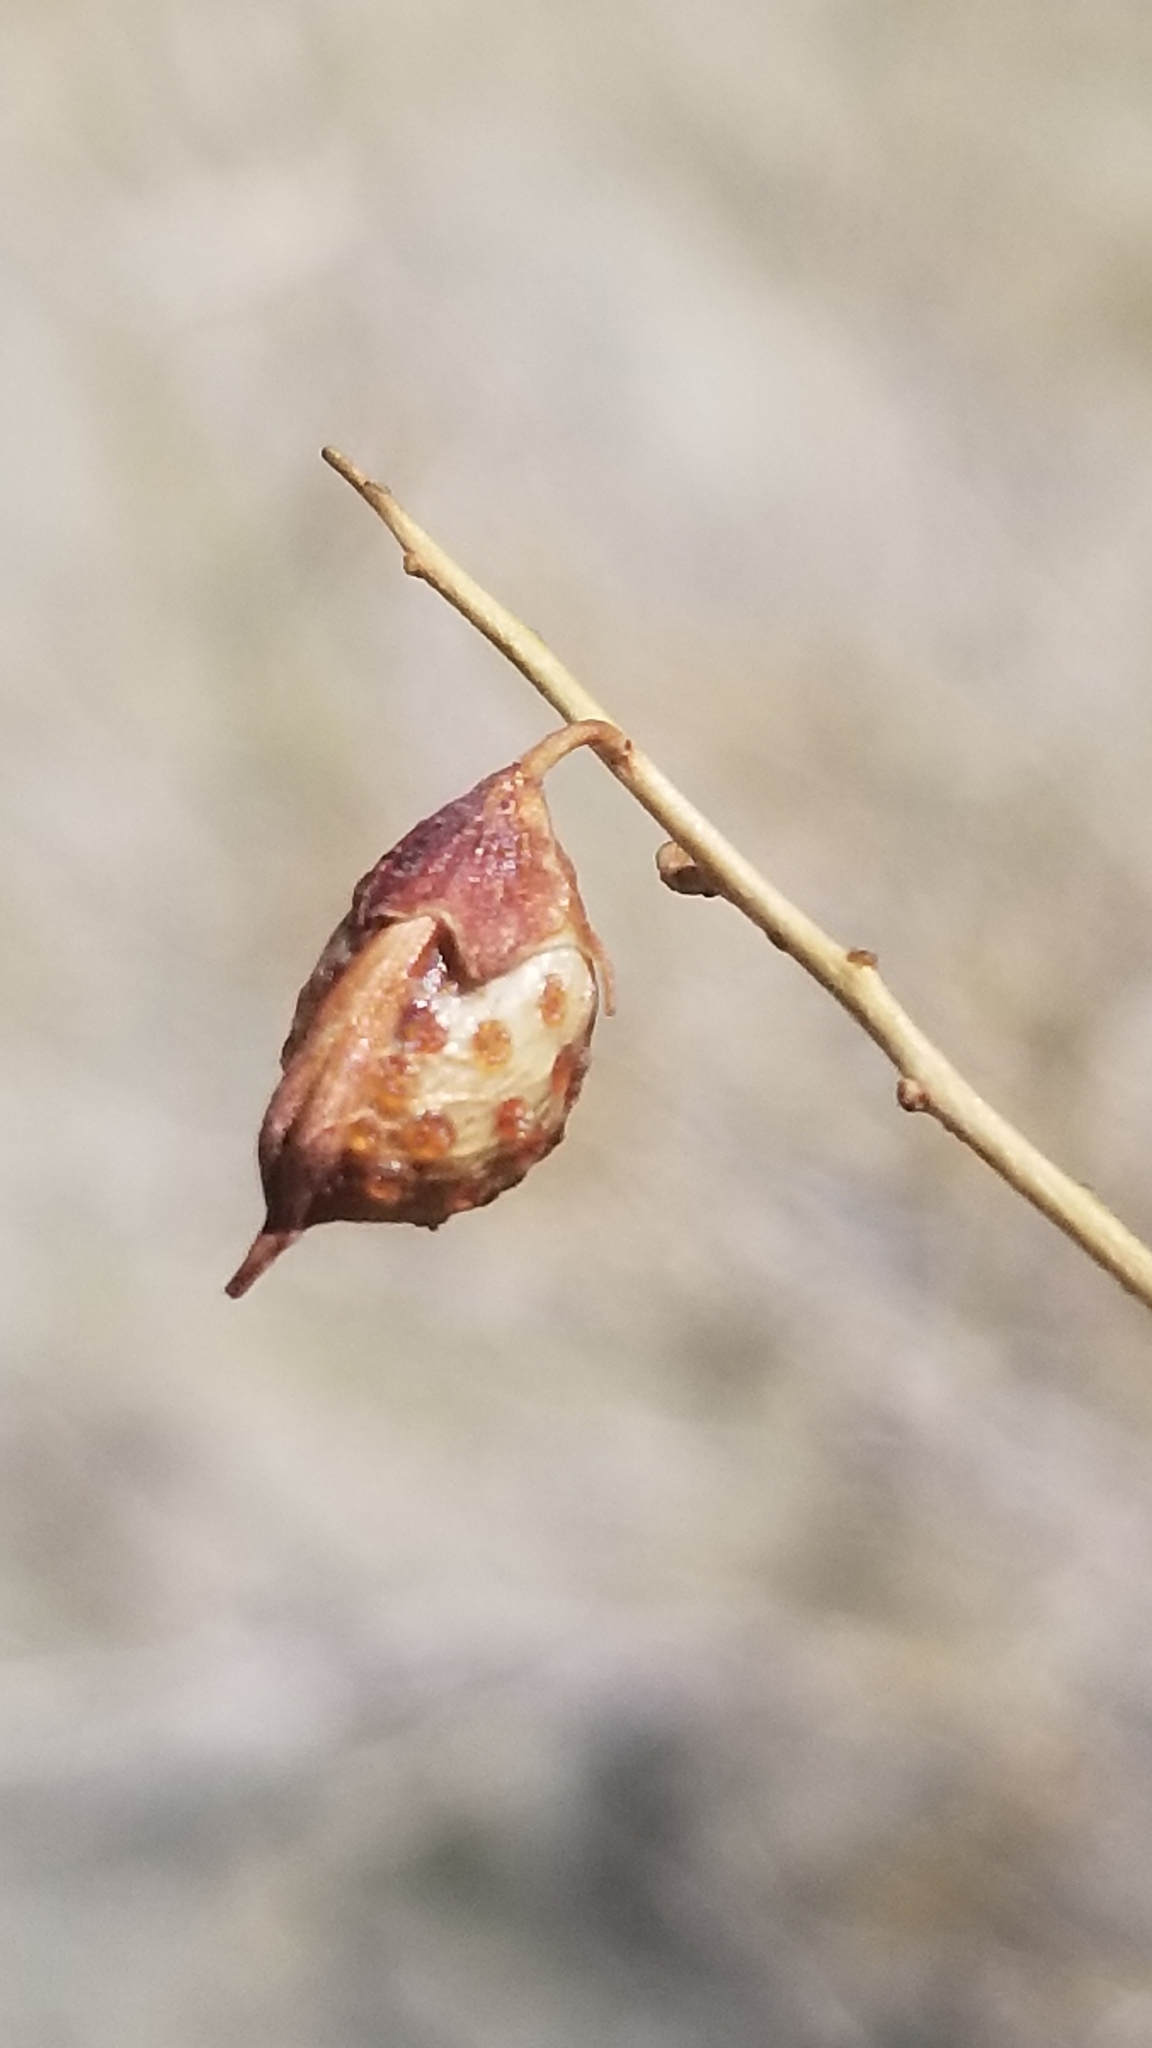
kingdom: Plantae
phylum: Tracheophyta
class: Magnoliopsida
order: Fabales
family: Fabaceae
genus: Psorothamnus
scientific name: Psorothamnus schottii
